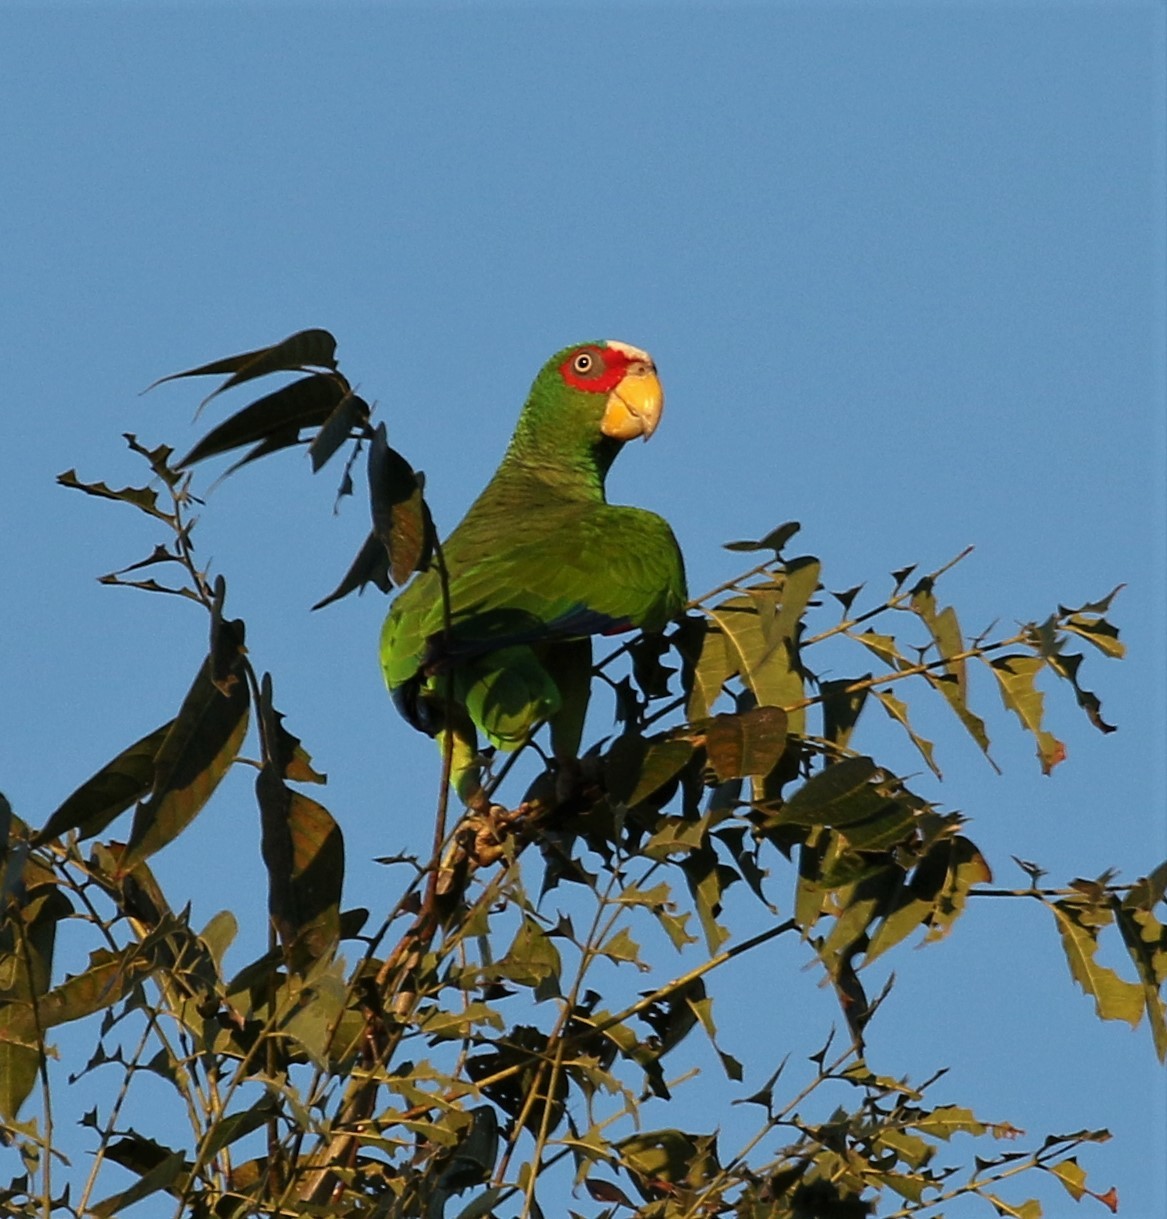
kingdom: Animalia
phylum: Chordata
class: Aves
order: Psittaciformes
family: Psittacidae
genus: Amazona
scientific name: Amazona albifrons
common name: White-fronted amazon
